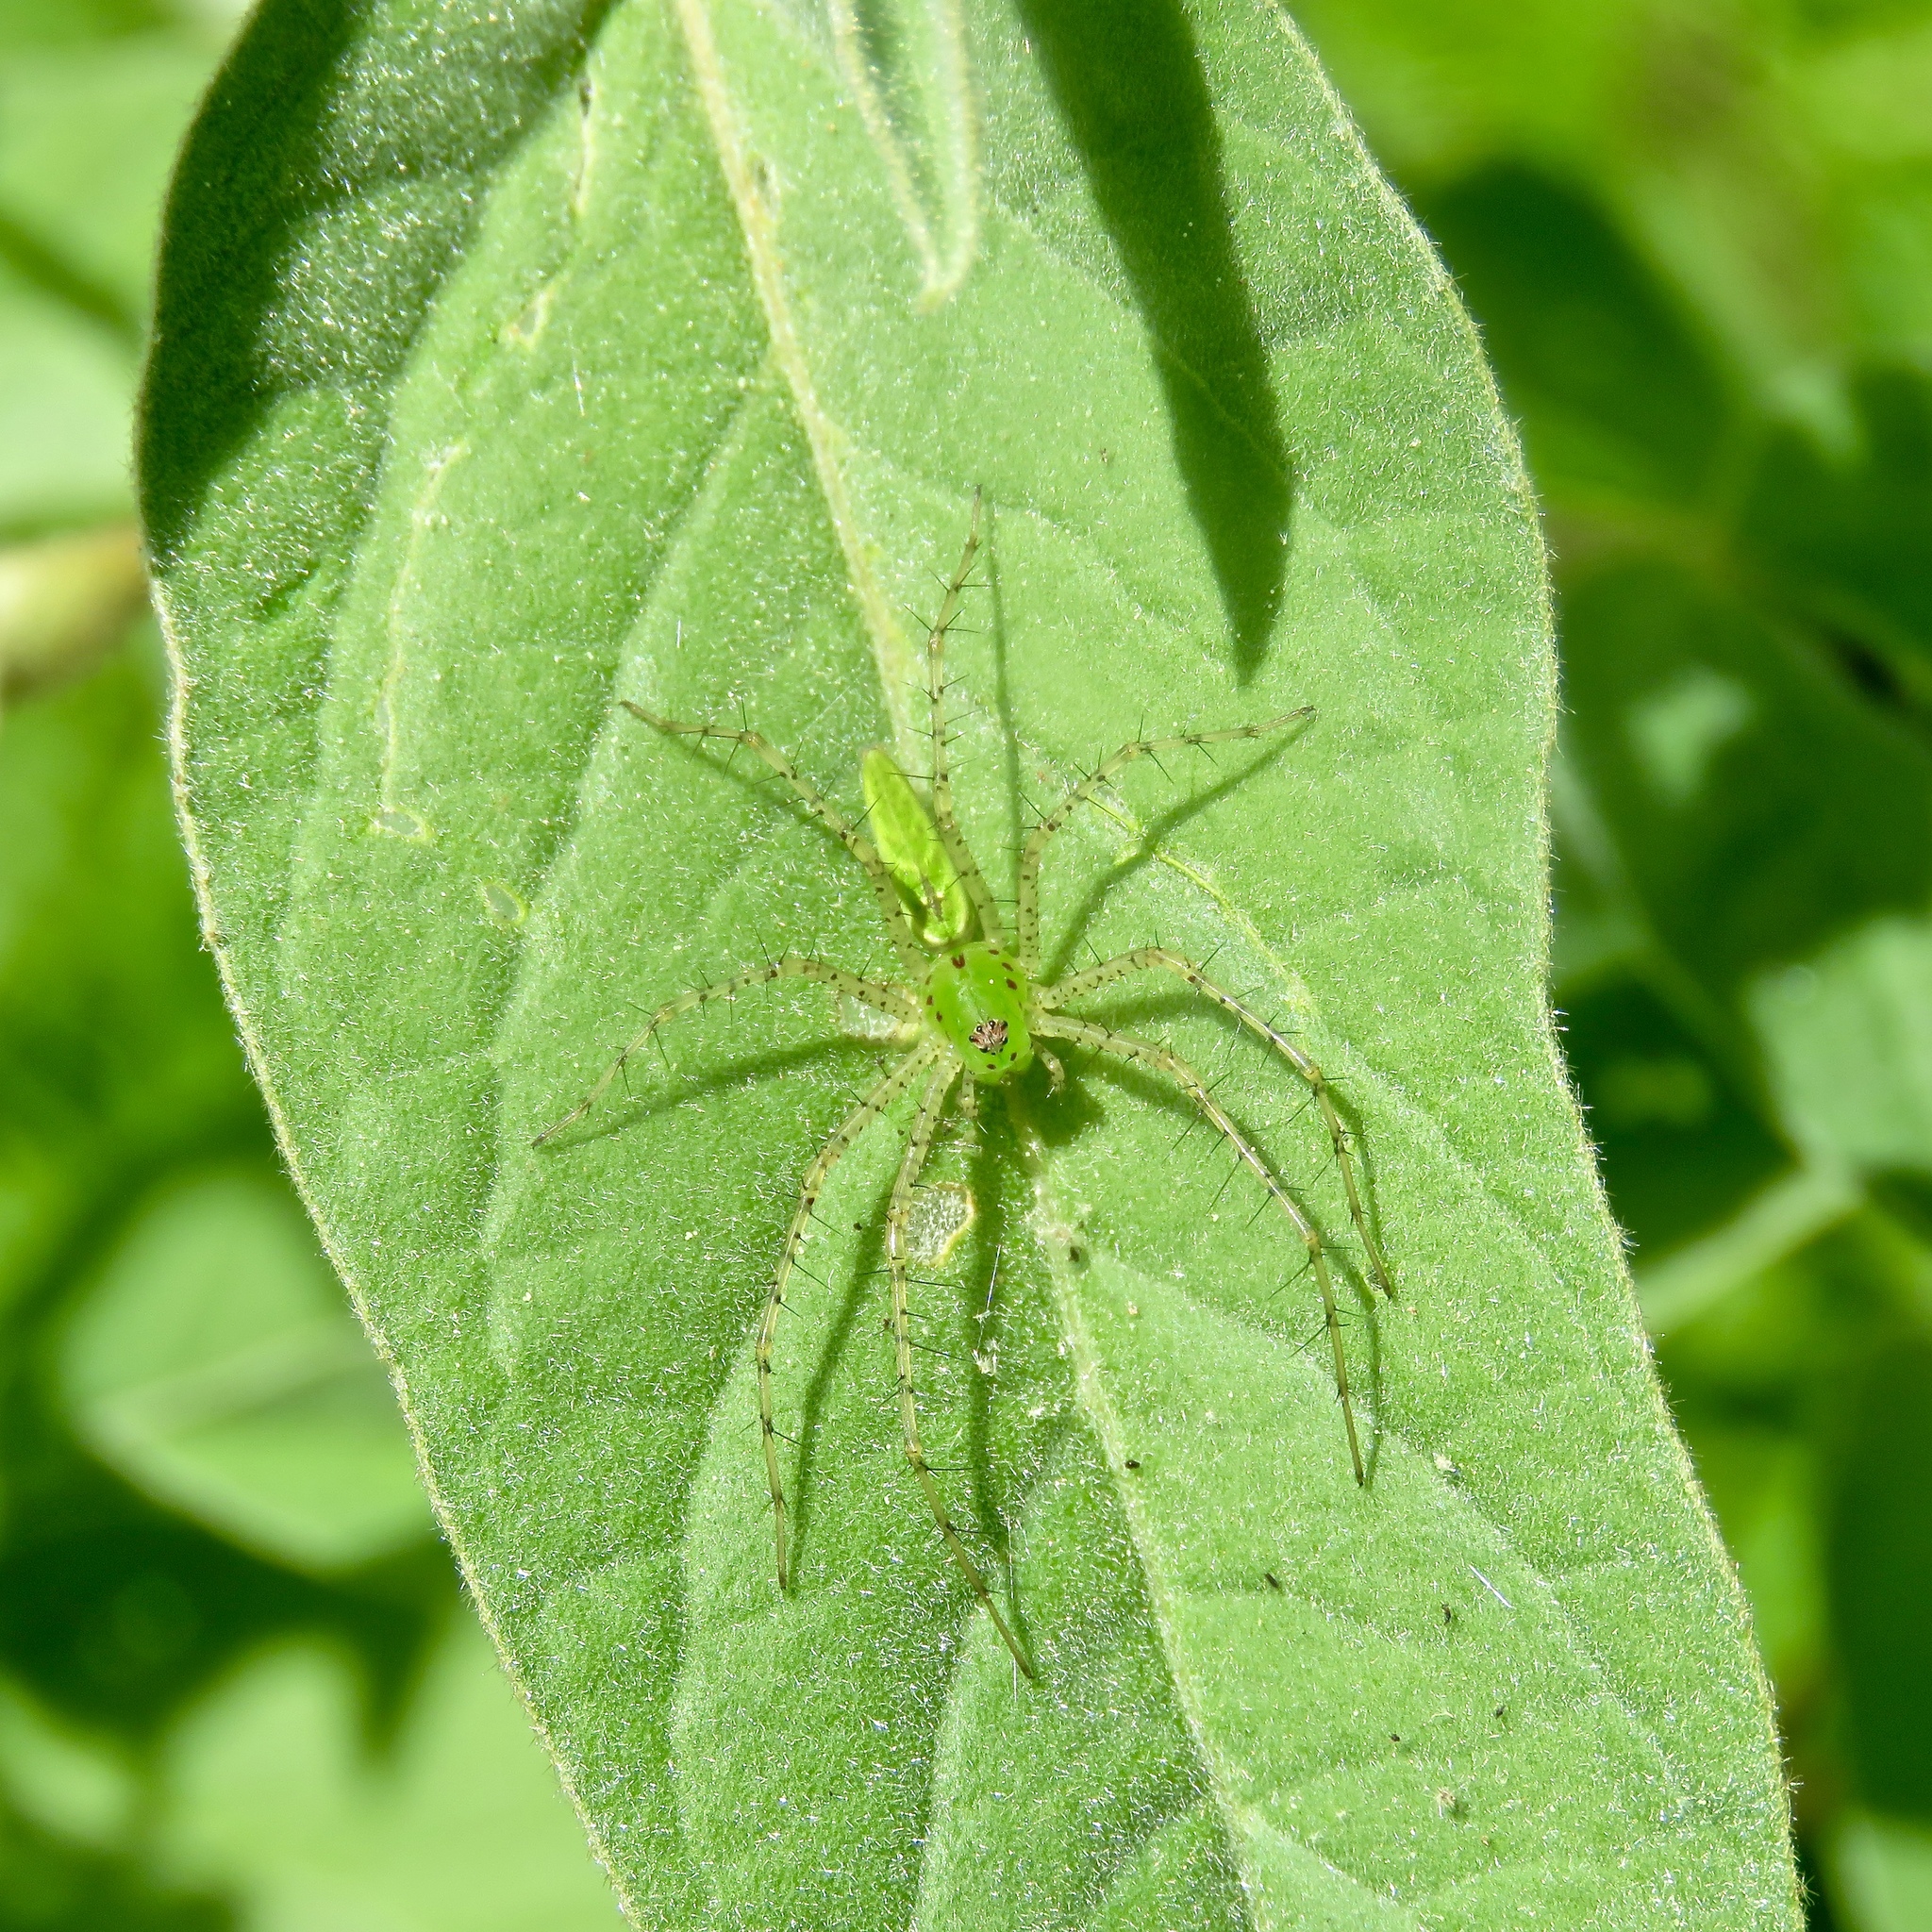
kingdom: Animalia
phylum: Arthropoda
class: Arachnida
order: Araneae
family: Oxyopidae
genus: Peucetia
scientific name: Peucetia viridans
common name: Lynx spiders
